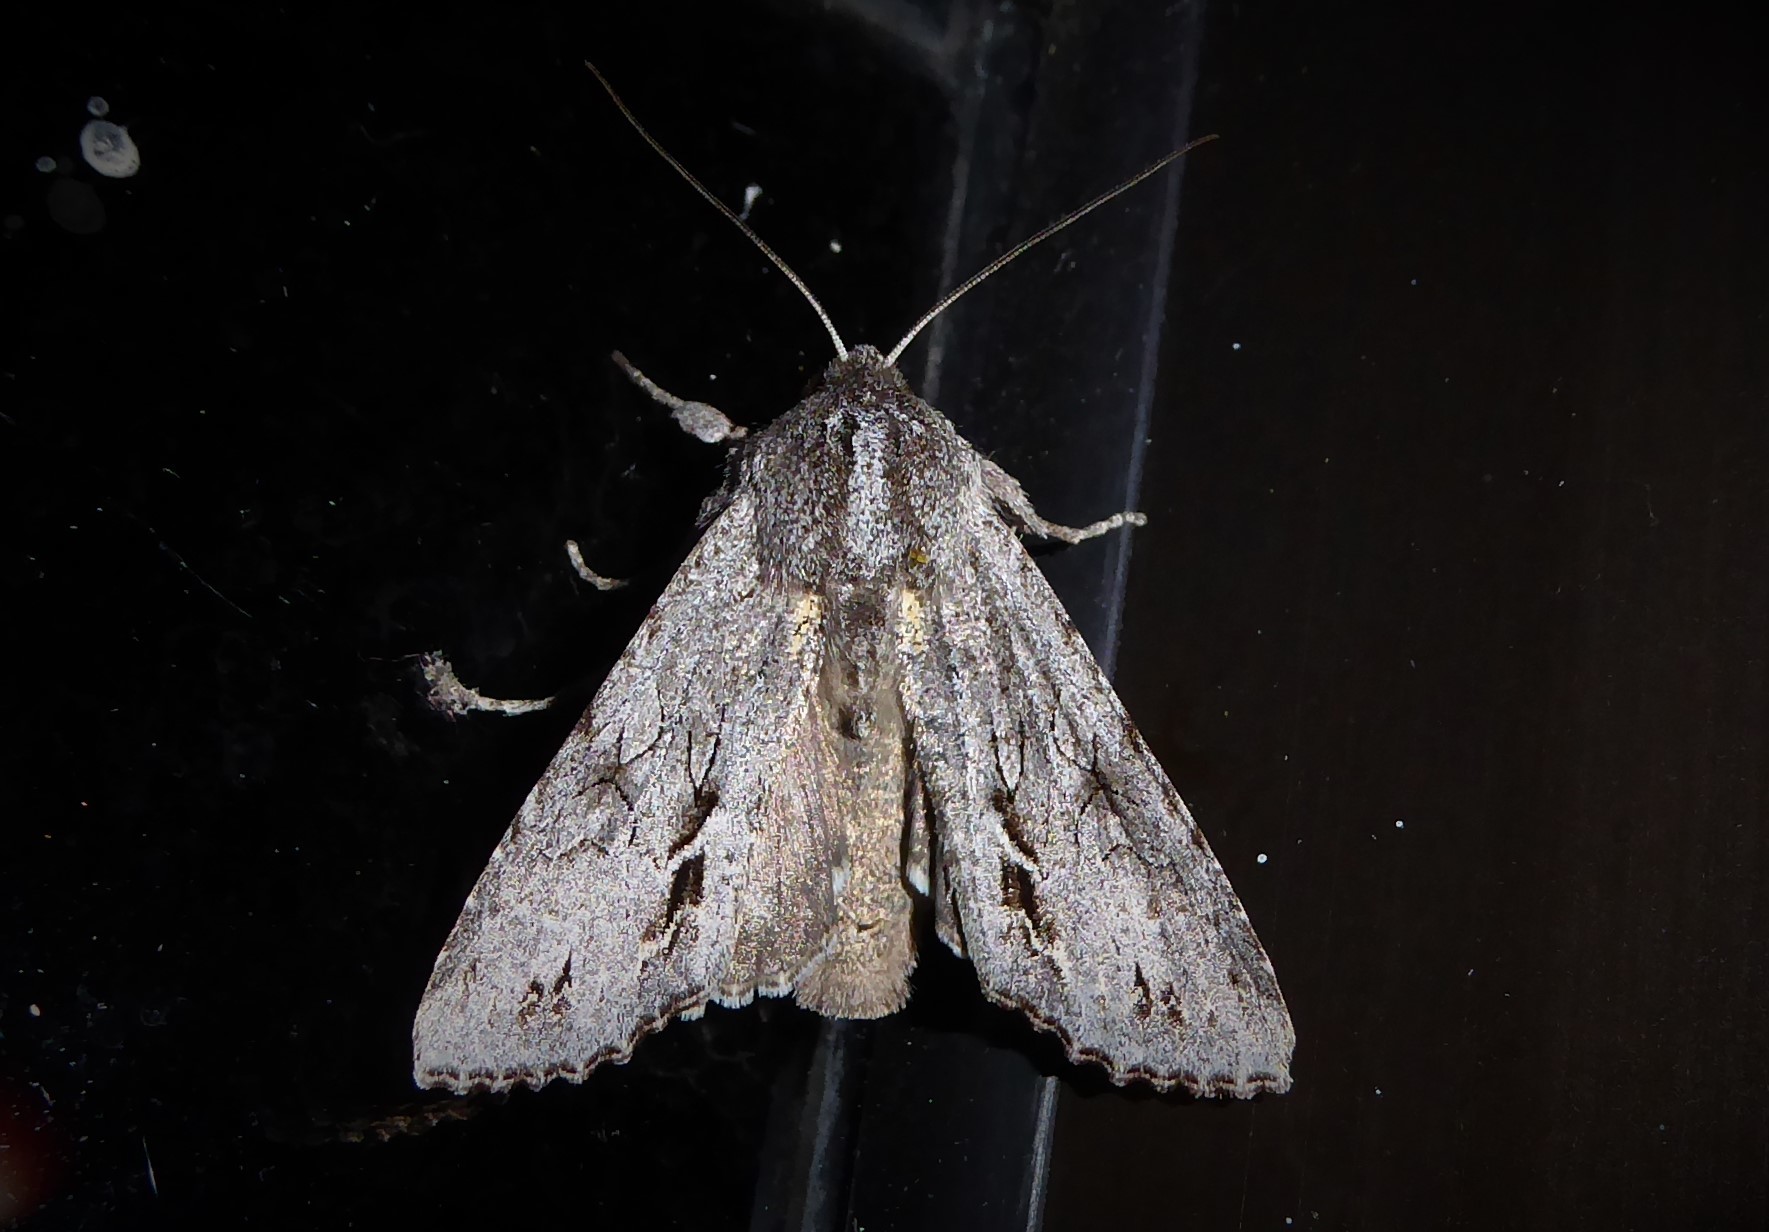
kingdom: Animalia
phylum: Arthropoda
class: Insecta
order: Lepidoptera
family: Noctuidae
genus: Ichneutica
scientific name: Ichneutica
